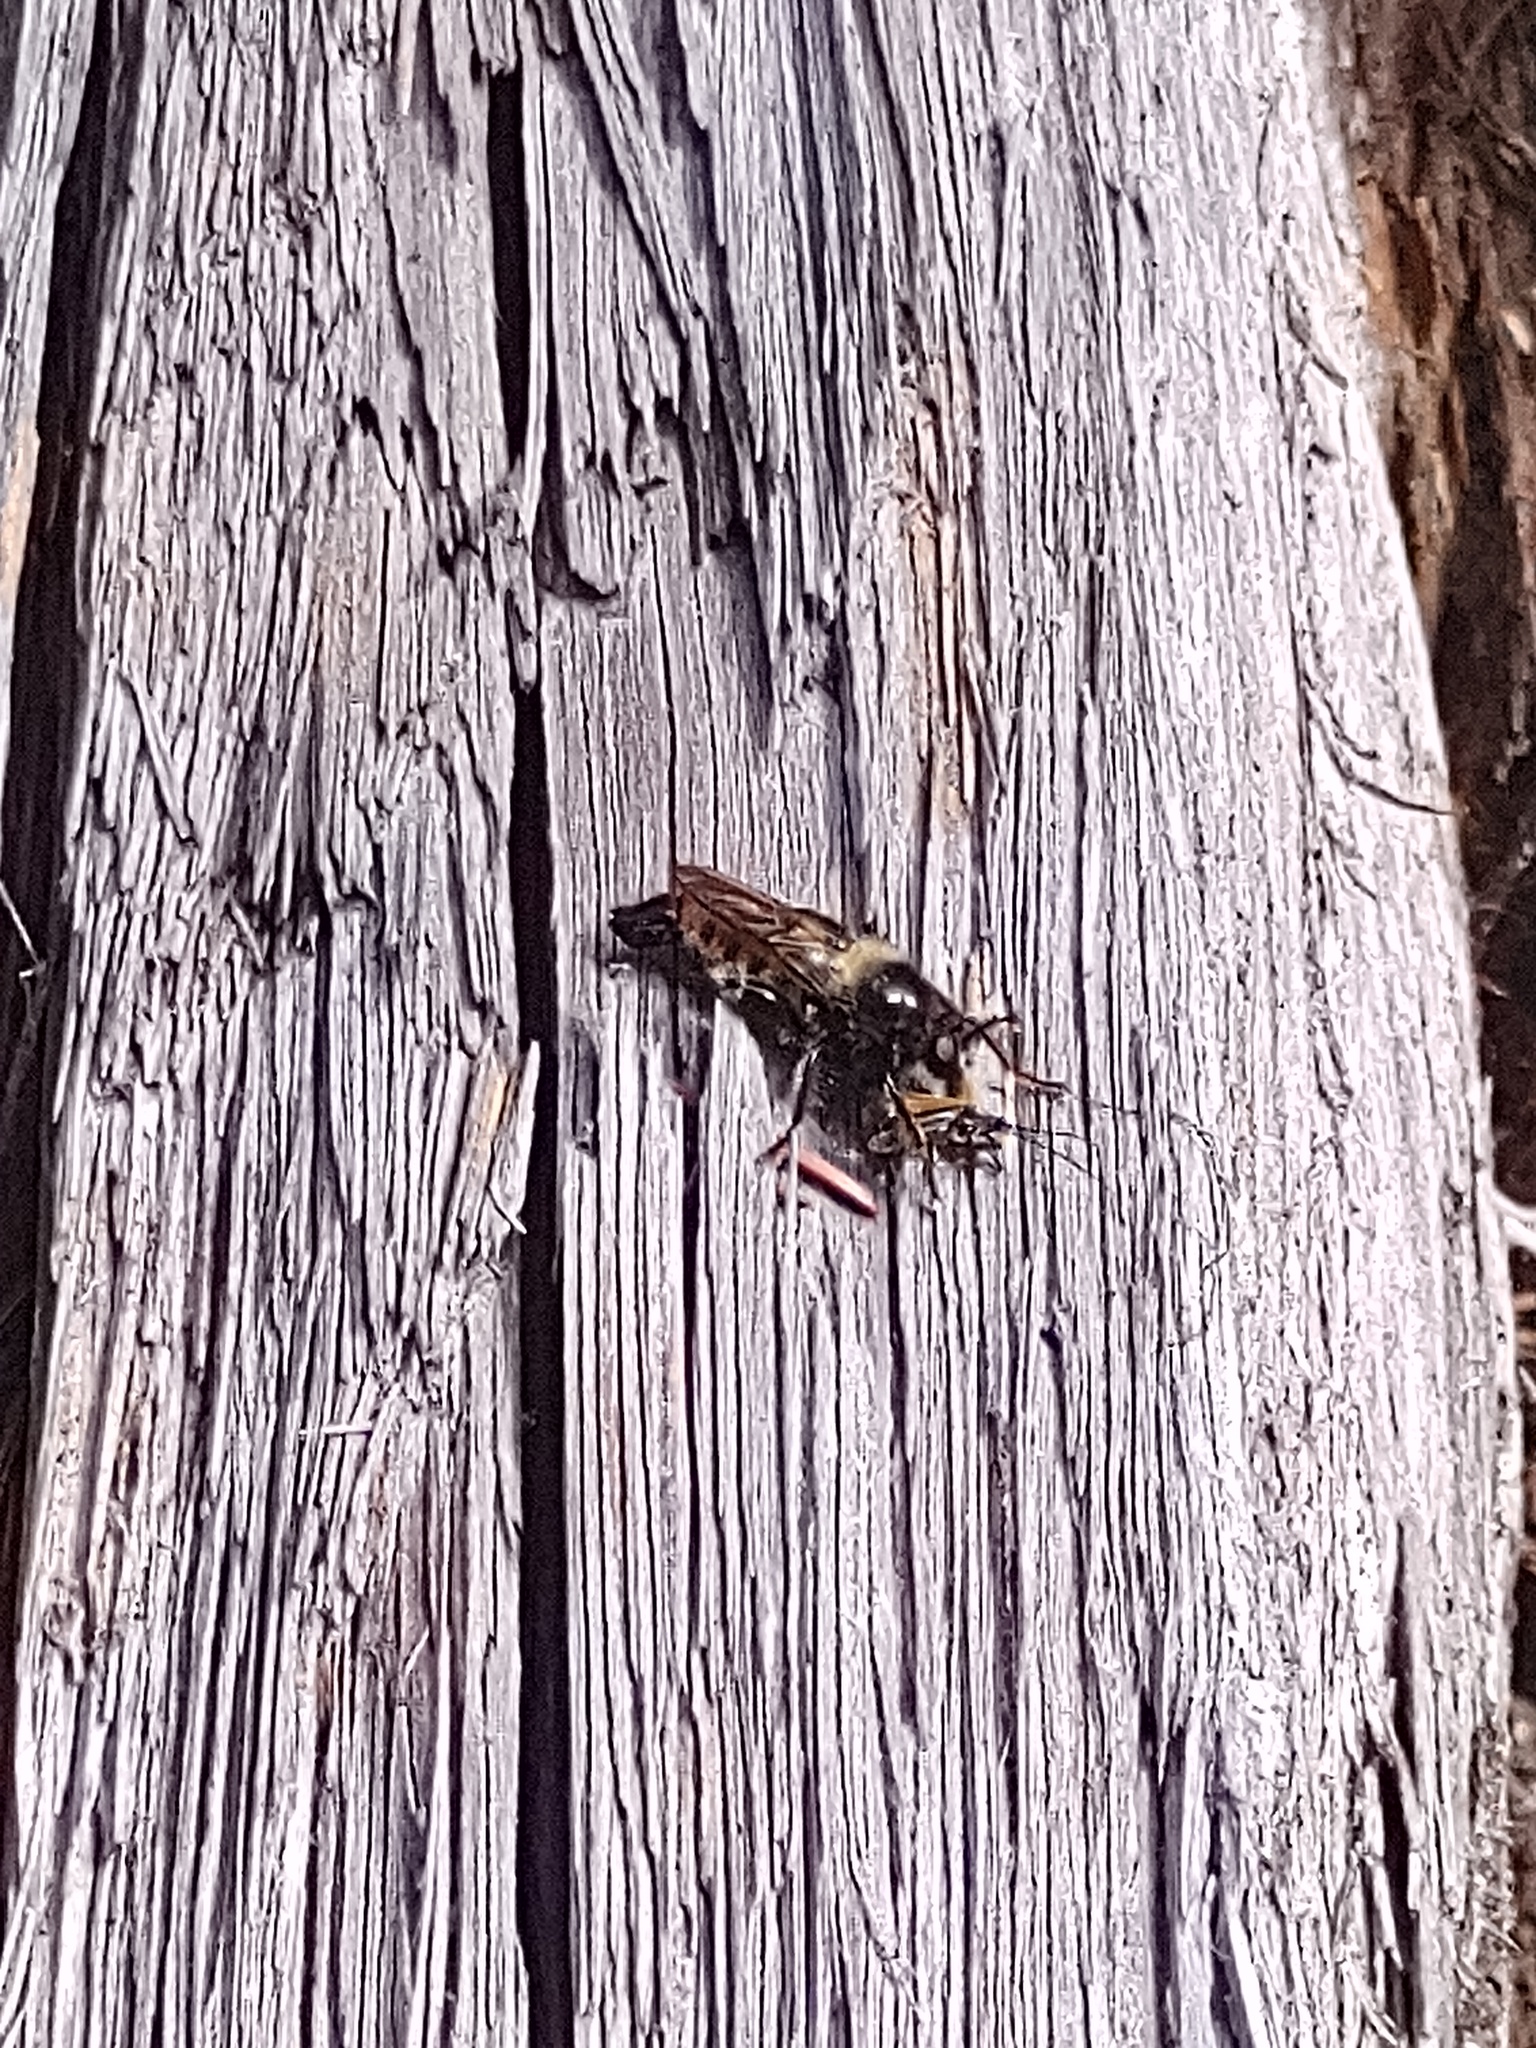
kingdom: Animalia
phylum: Arthropoda
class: Insecta
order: Diptera
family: Asilidae
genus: Laphria
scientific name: Laphria flava
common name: Bumblebee robberfly
